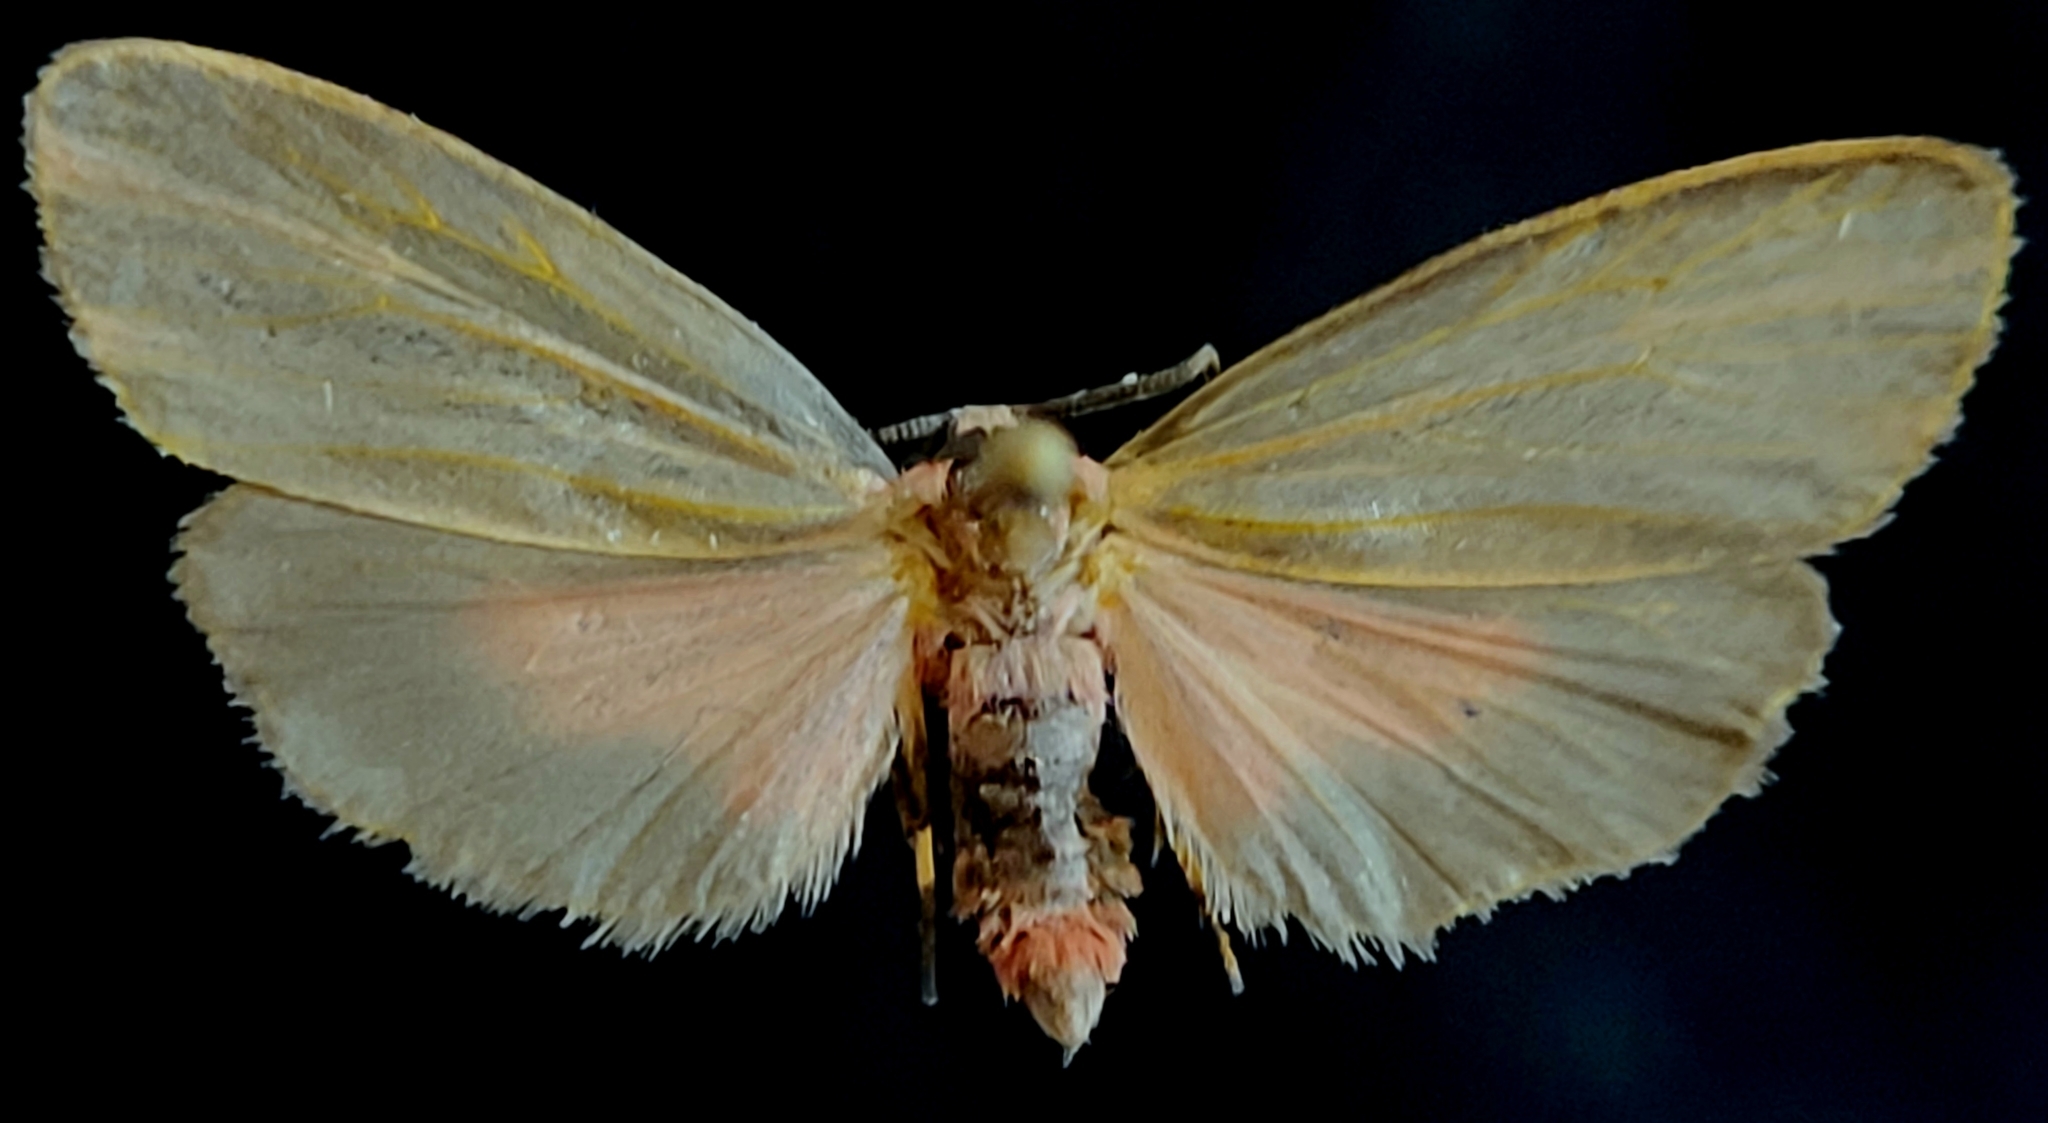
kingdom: Animalia
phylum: Arthropoda
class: Insecta
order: Lepidoptera
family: Erebidae
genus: Hypoprepia
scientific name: Hypoprepia fucosa
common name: Painted lichen moth
